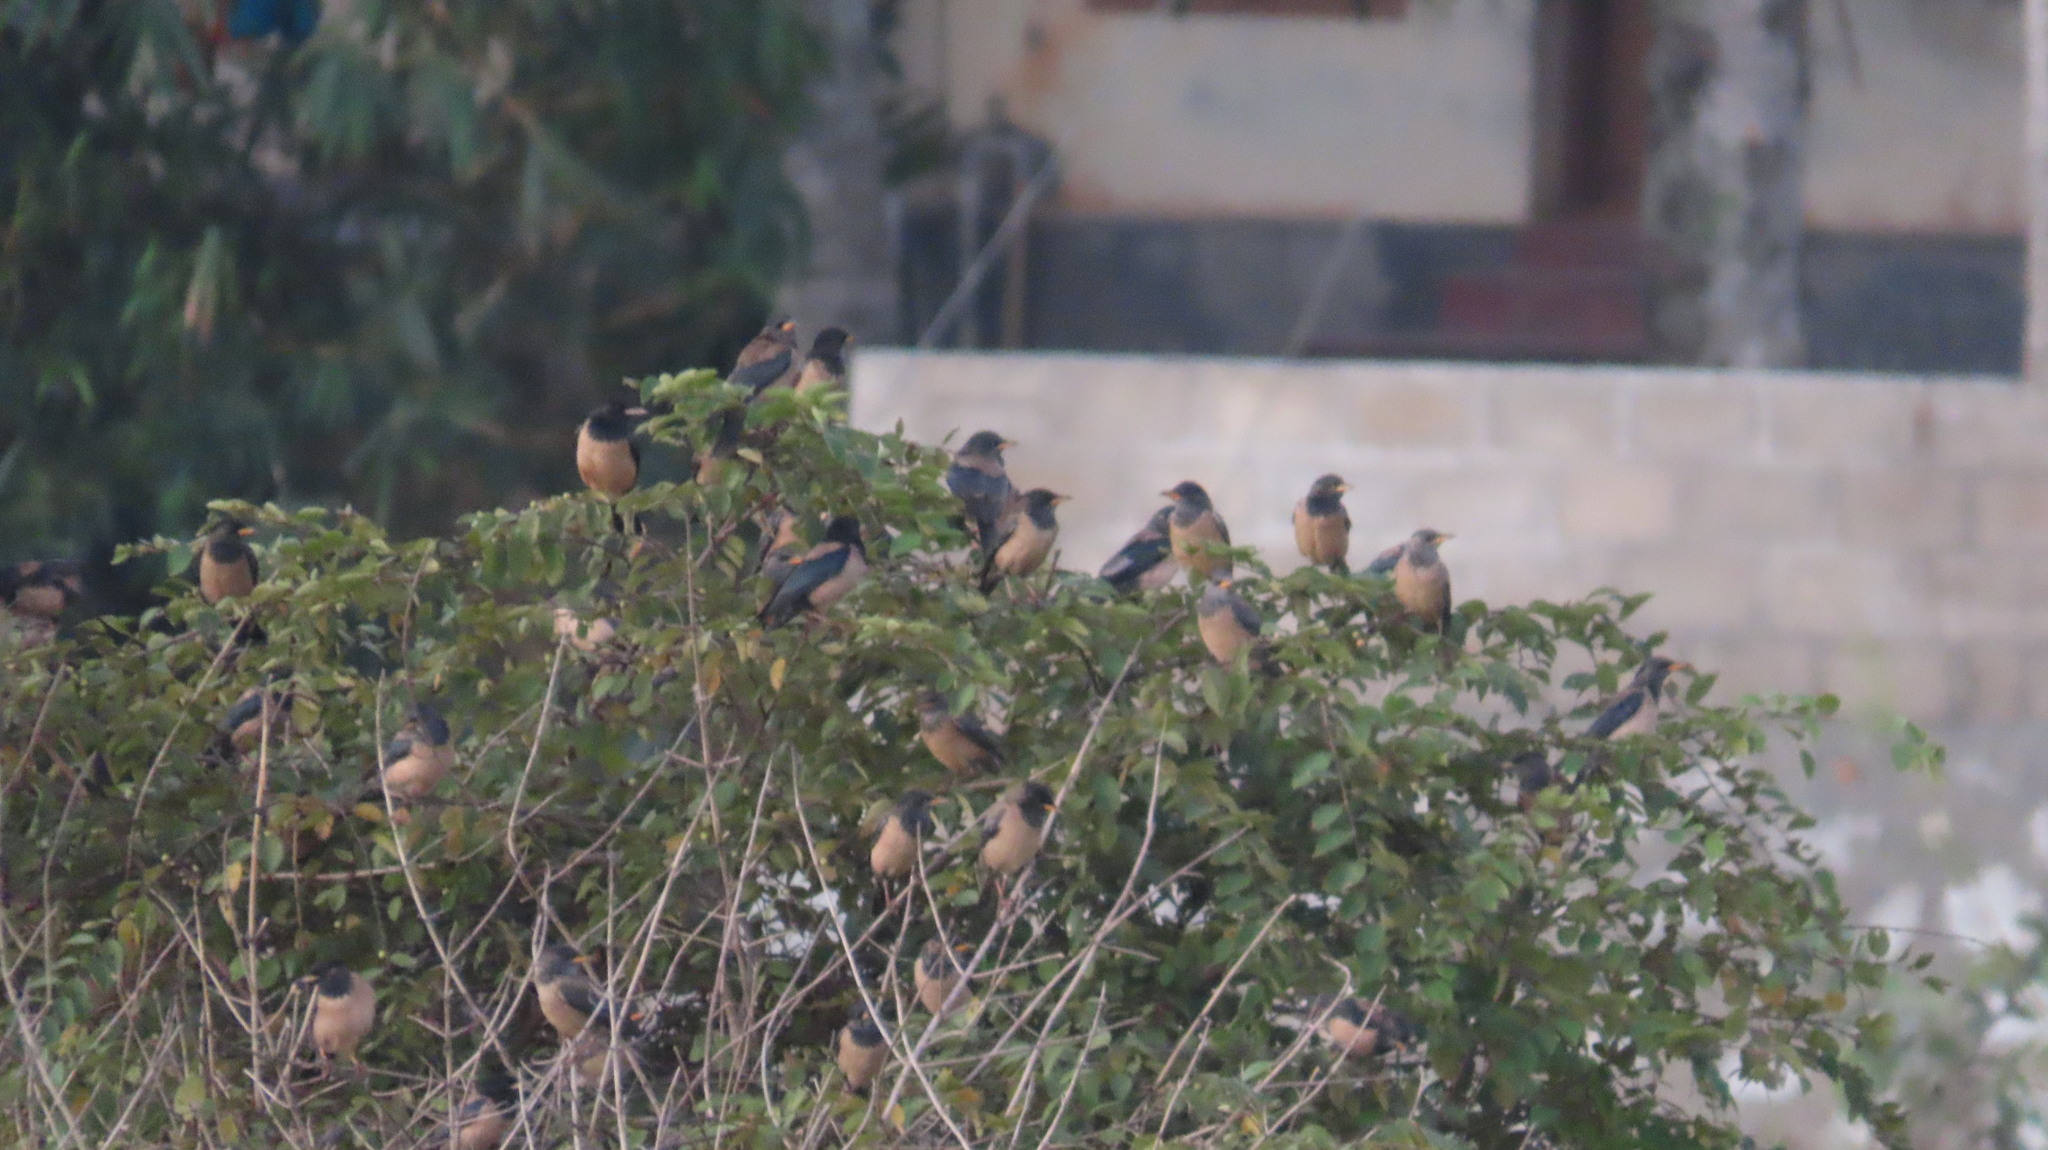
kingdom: Animalia
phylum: Chordata
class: Aves
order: Passeriformes
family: Sturnidae
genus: Pastor
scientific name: Pastor roseus
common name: Rosy starling
